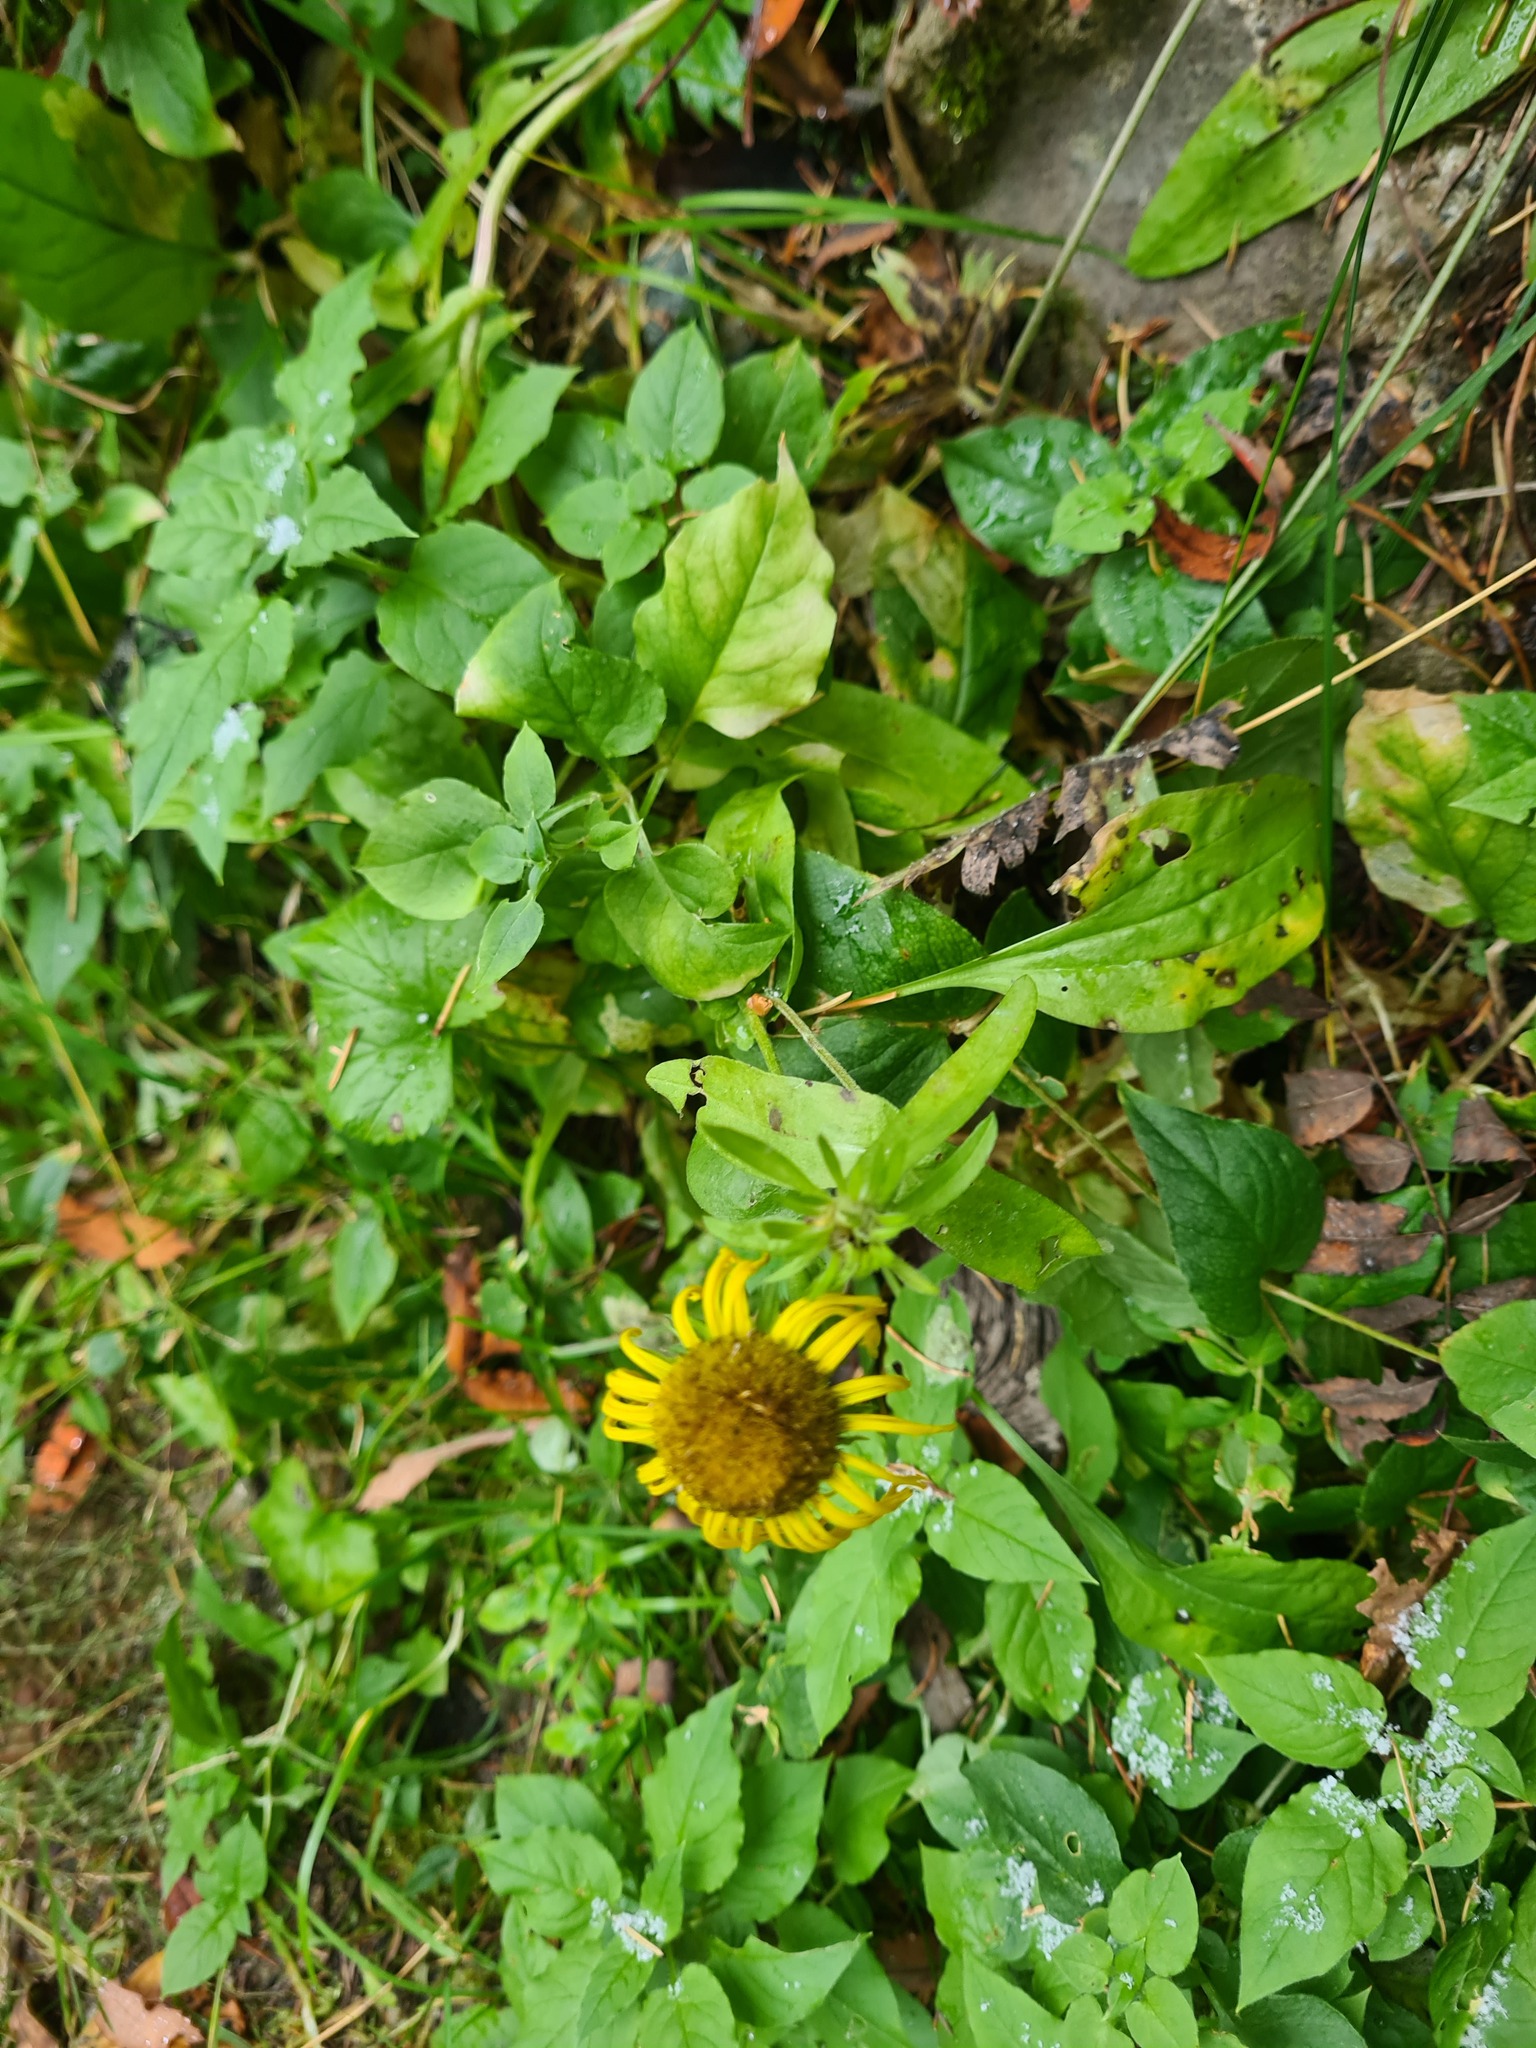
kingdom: Plantae
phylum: Tracheophyta
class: Magnoliopsida
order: Asterales
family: Asteraceae
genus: Pentanema
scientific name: Pentanema britannicum
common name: British elecampane
